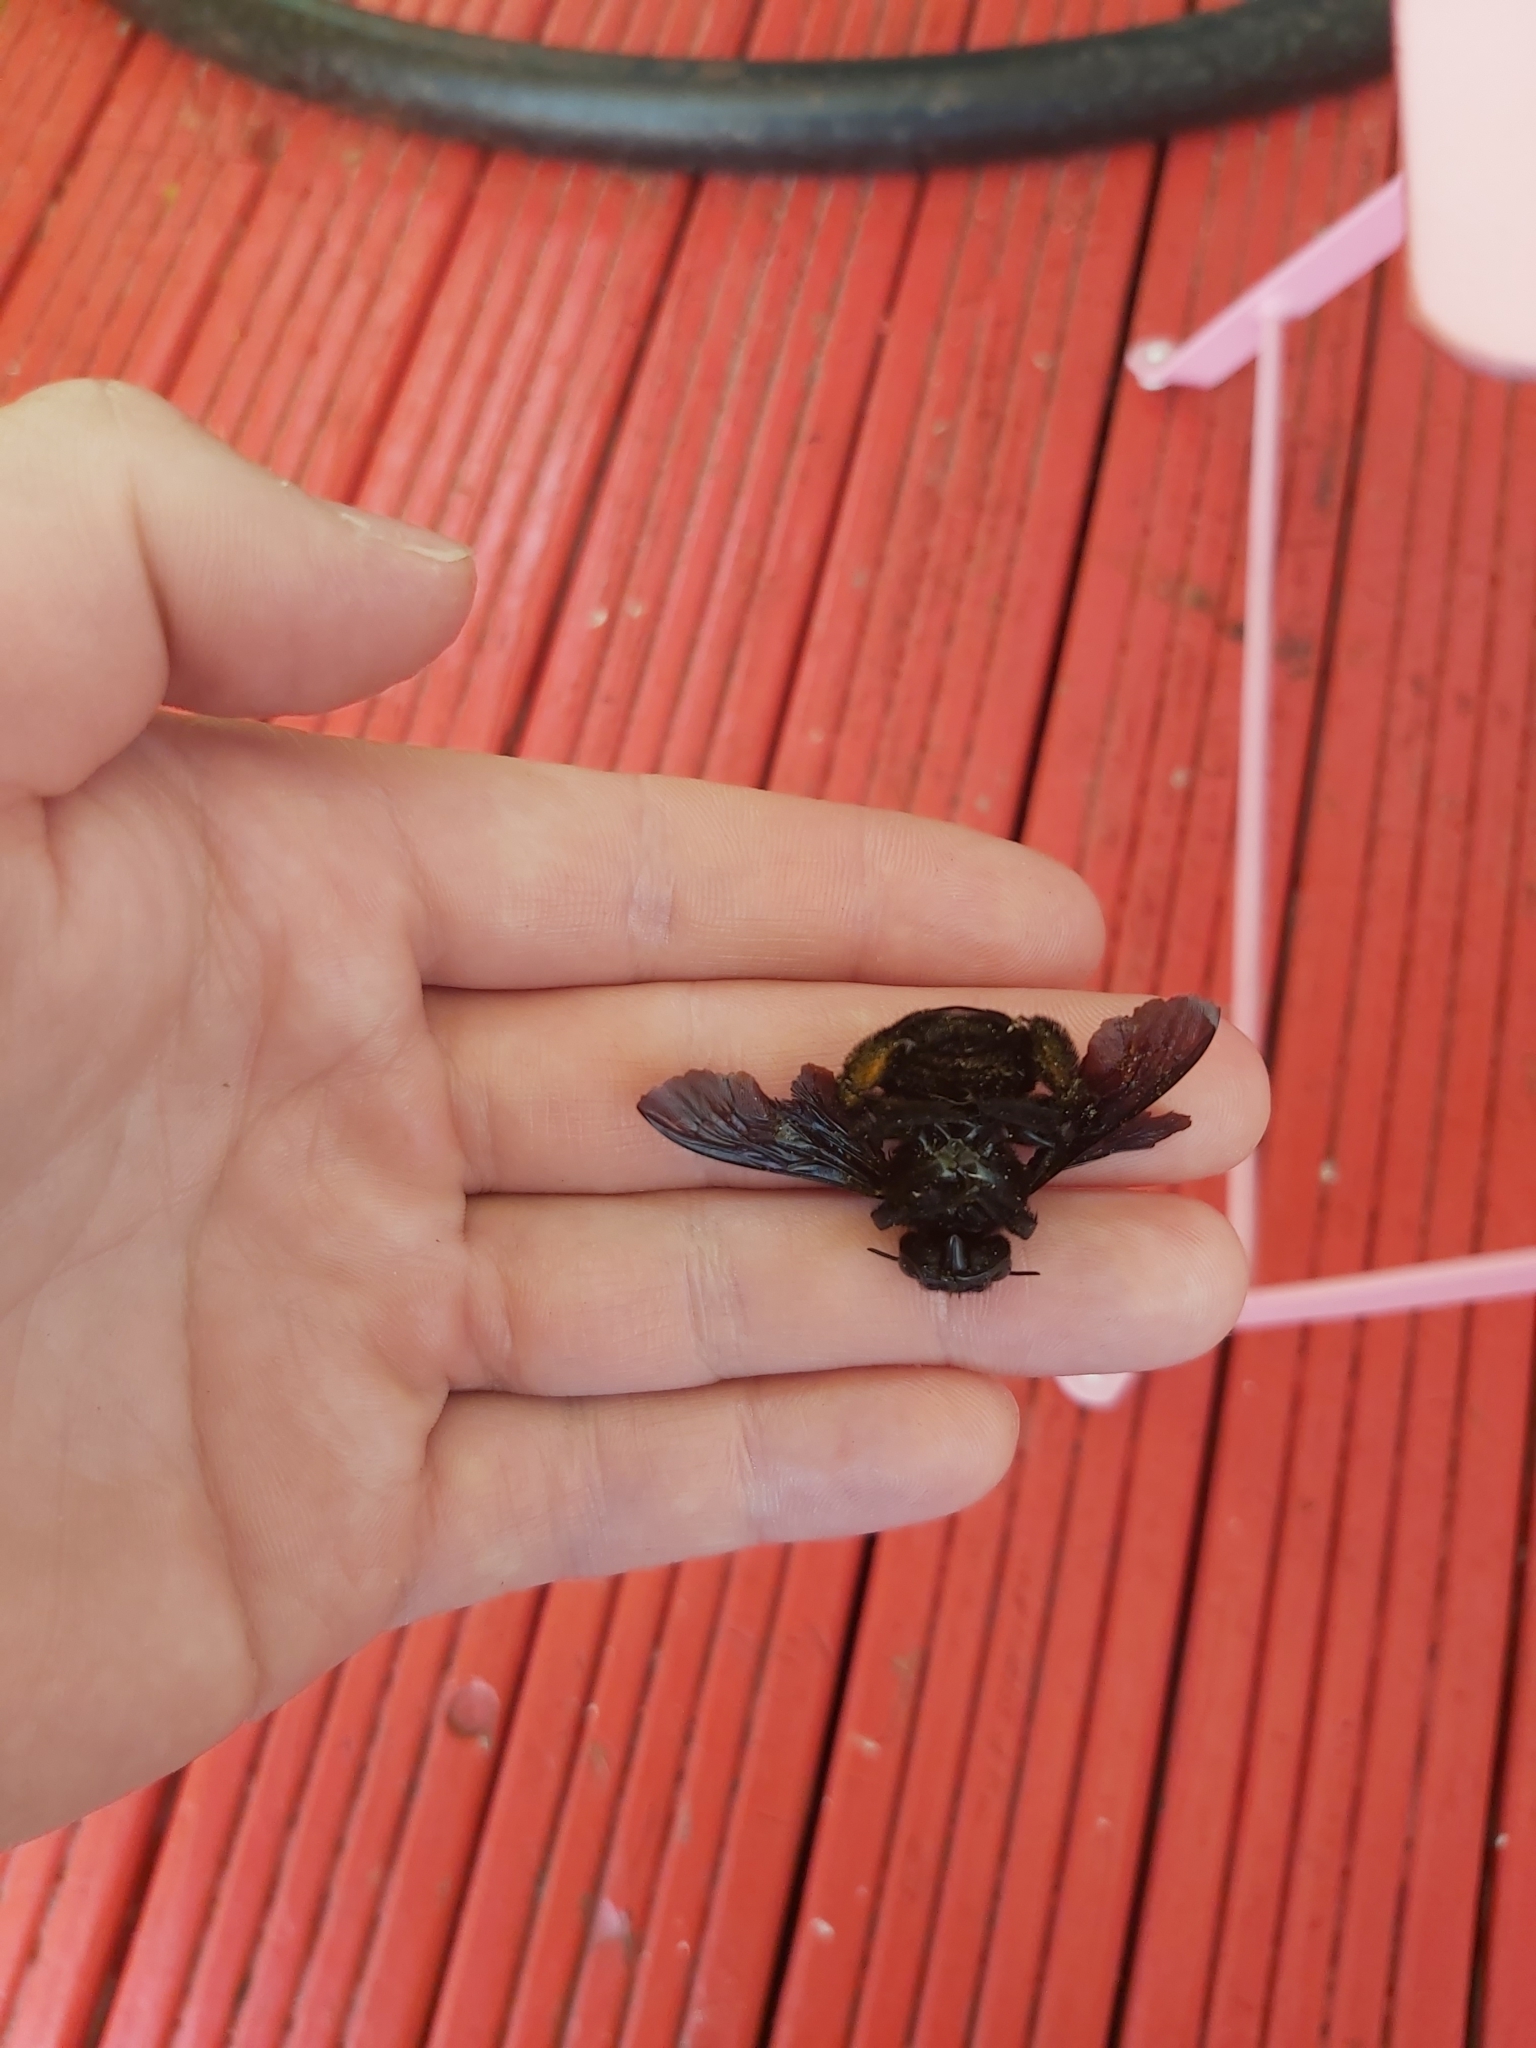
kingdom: Animalia
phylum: Arthropoda
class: Insecta
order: Hymenoptera
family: Apidae
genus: Xylocopa
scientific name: Xylocopa fimbriata
